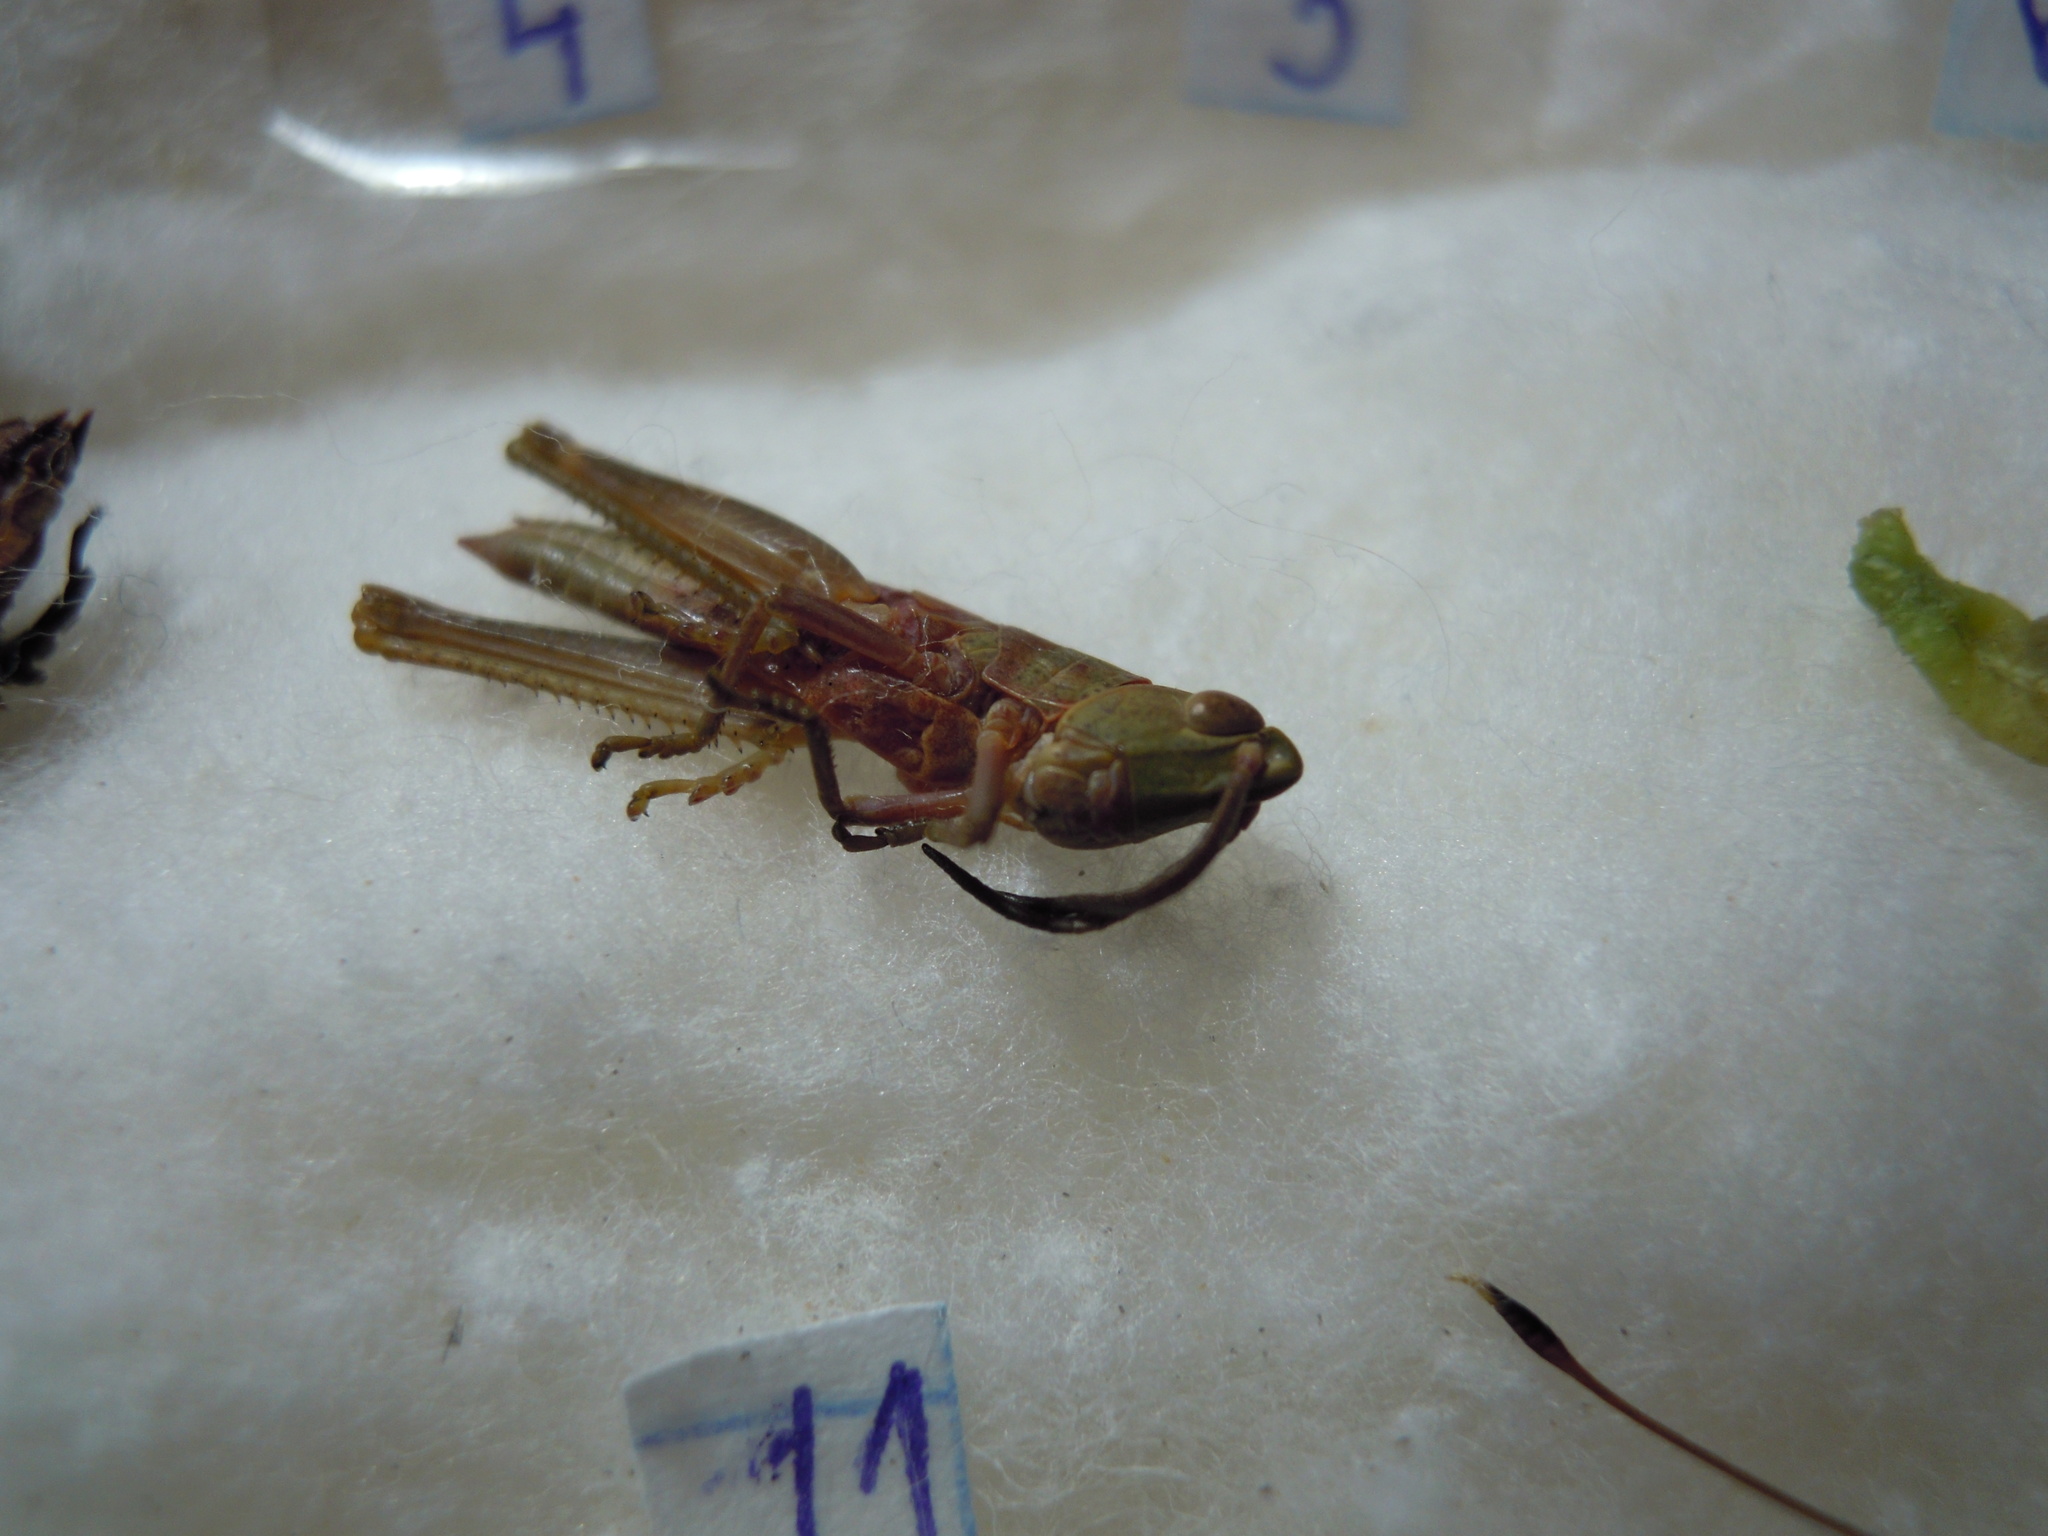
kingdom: Animalia
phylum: Arthropoda
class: Insecta
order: Orthoptera
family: Acrididae
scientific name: Acrididae
